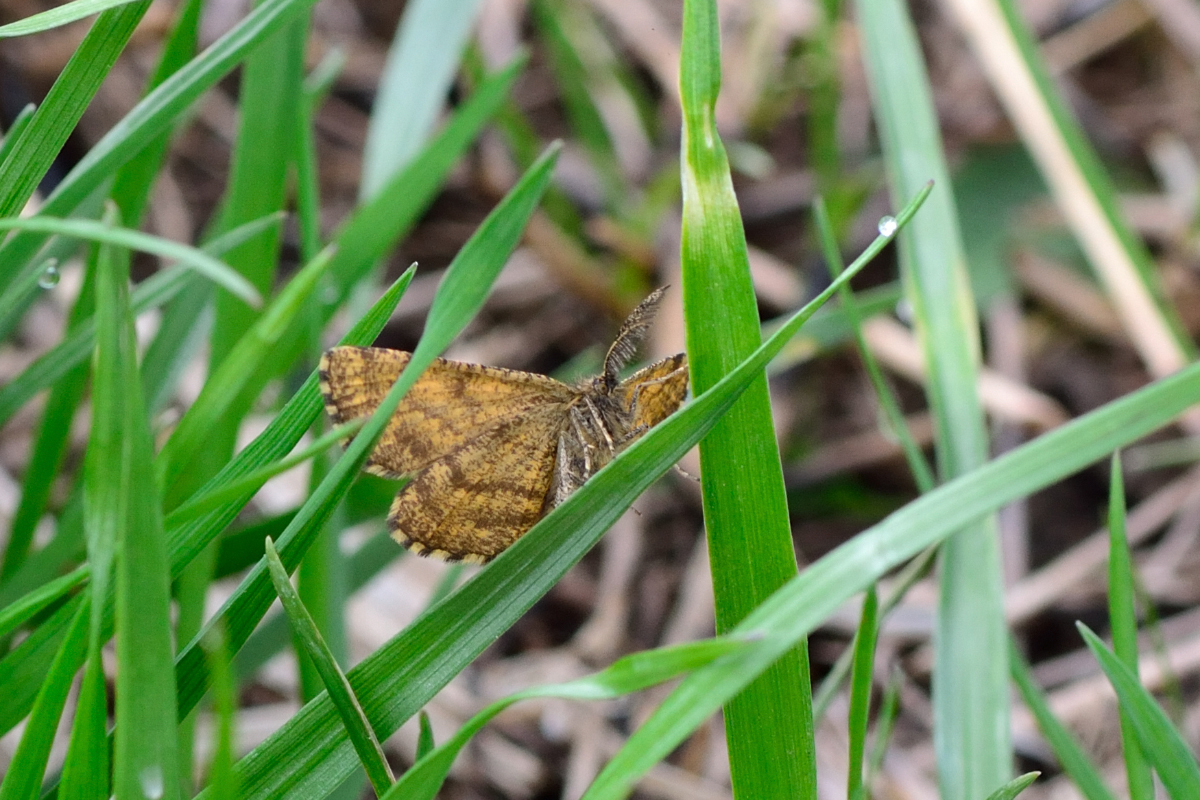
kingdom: Animalia
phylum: Arthropoda
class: Insecta
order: Lepidoptera
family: Geometridae
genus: Ematurga
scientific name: Ematurga atomaria
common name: Common heath
